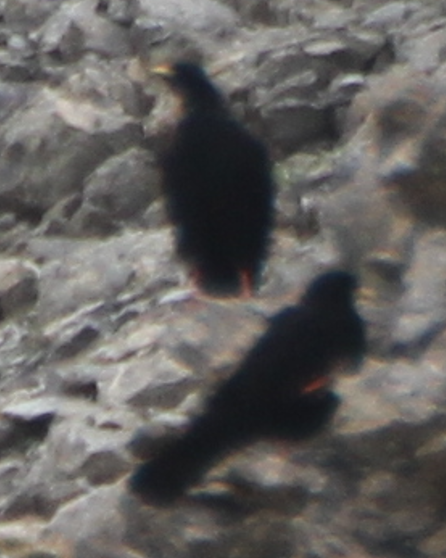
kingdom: Animalia
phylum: Chordata
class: Aves
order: Passeriformes
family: Corvidae
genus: Pyrrhocorax
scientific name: Pyrrhocorax graculus
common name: Alpine chough
